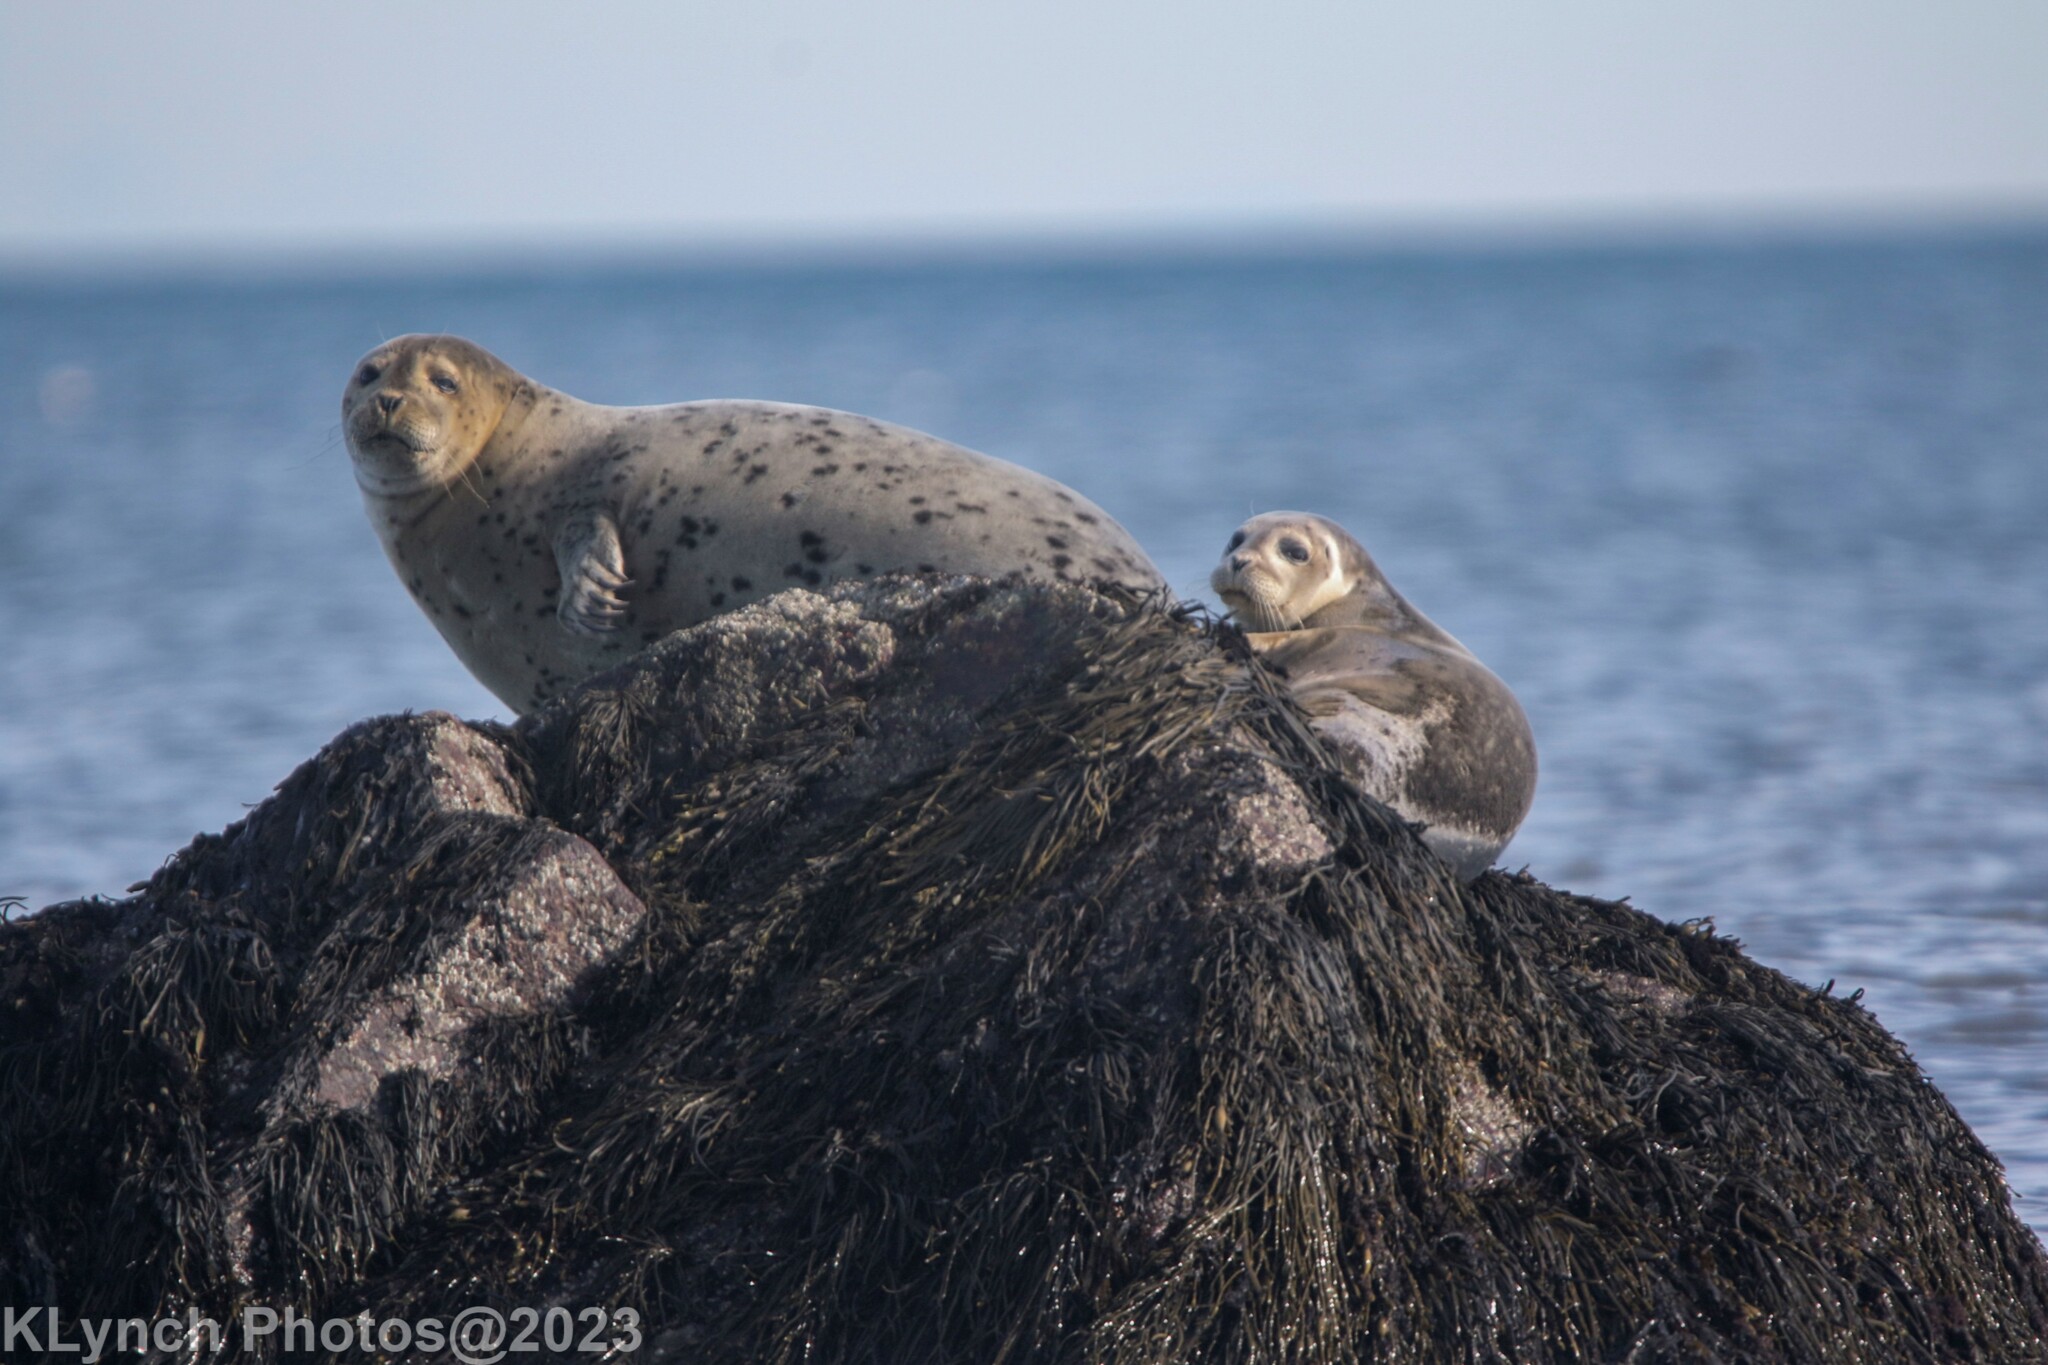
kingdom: Animalia
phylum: Chordata
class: Mammalia
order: Carnivora
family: Phocidae
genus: Phoca
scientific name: Phoca vitulina
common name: Harbor seal
